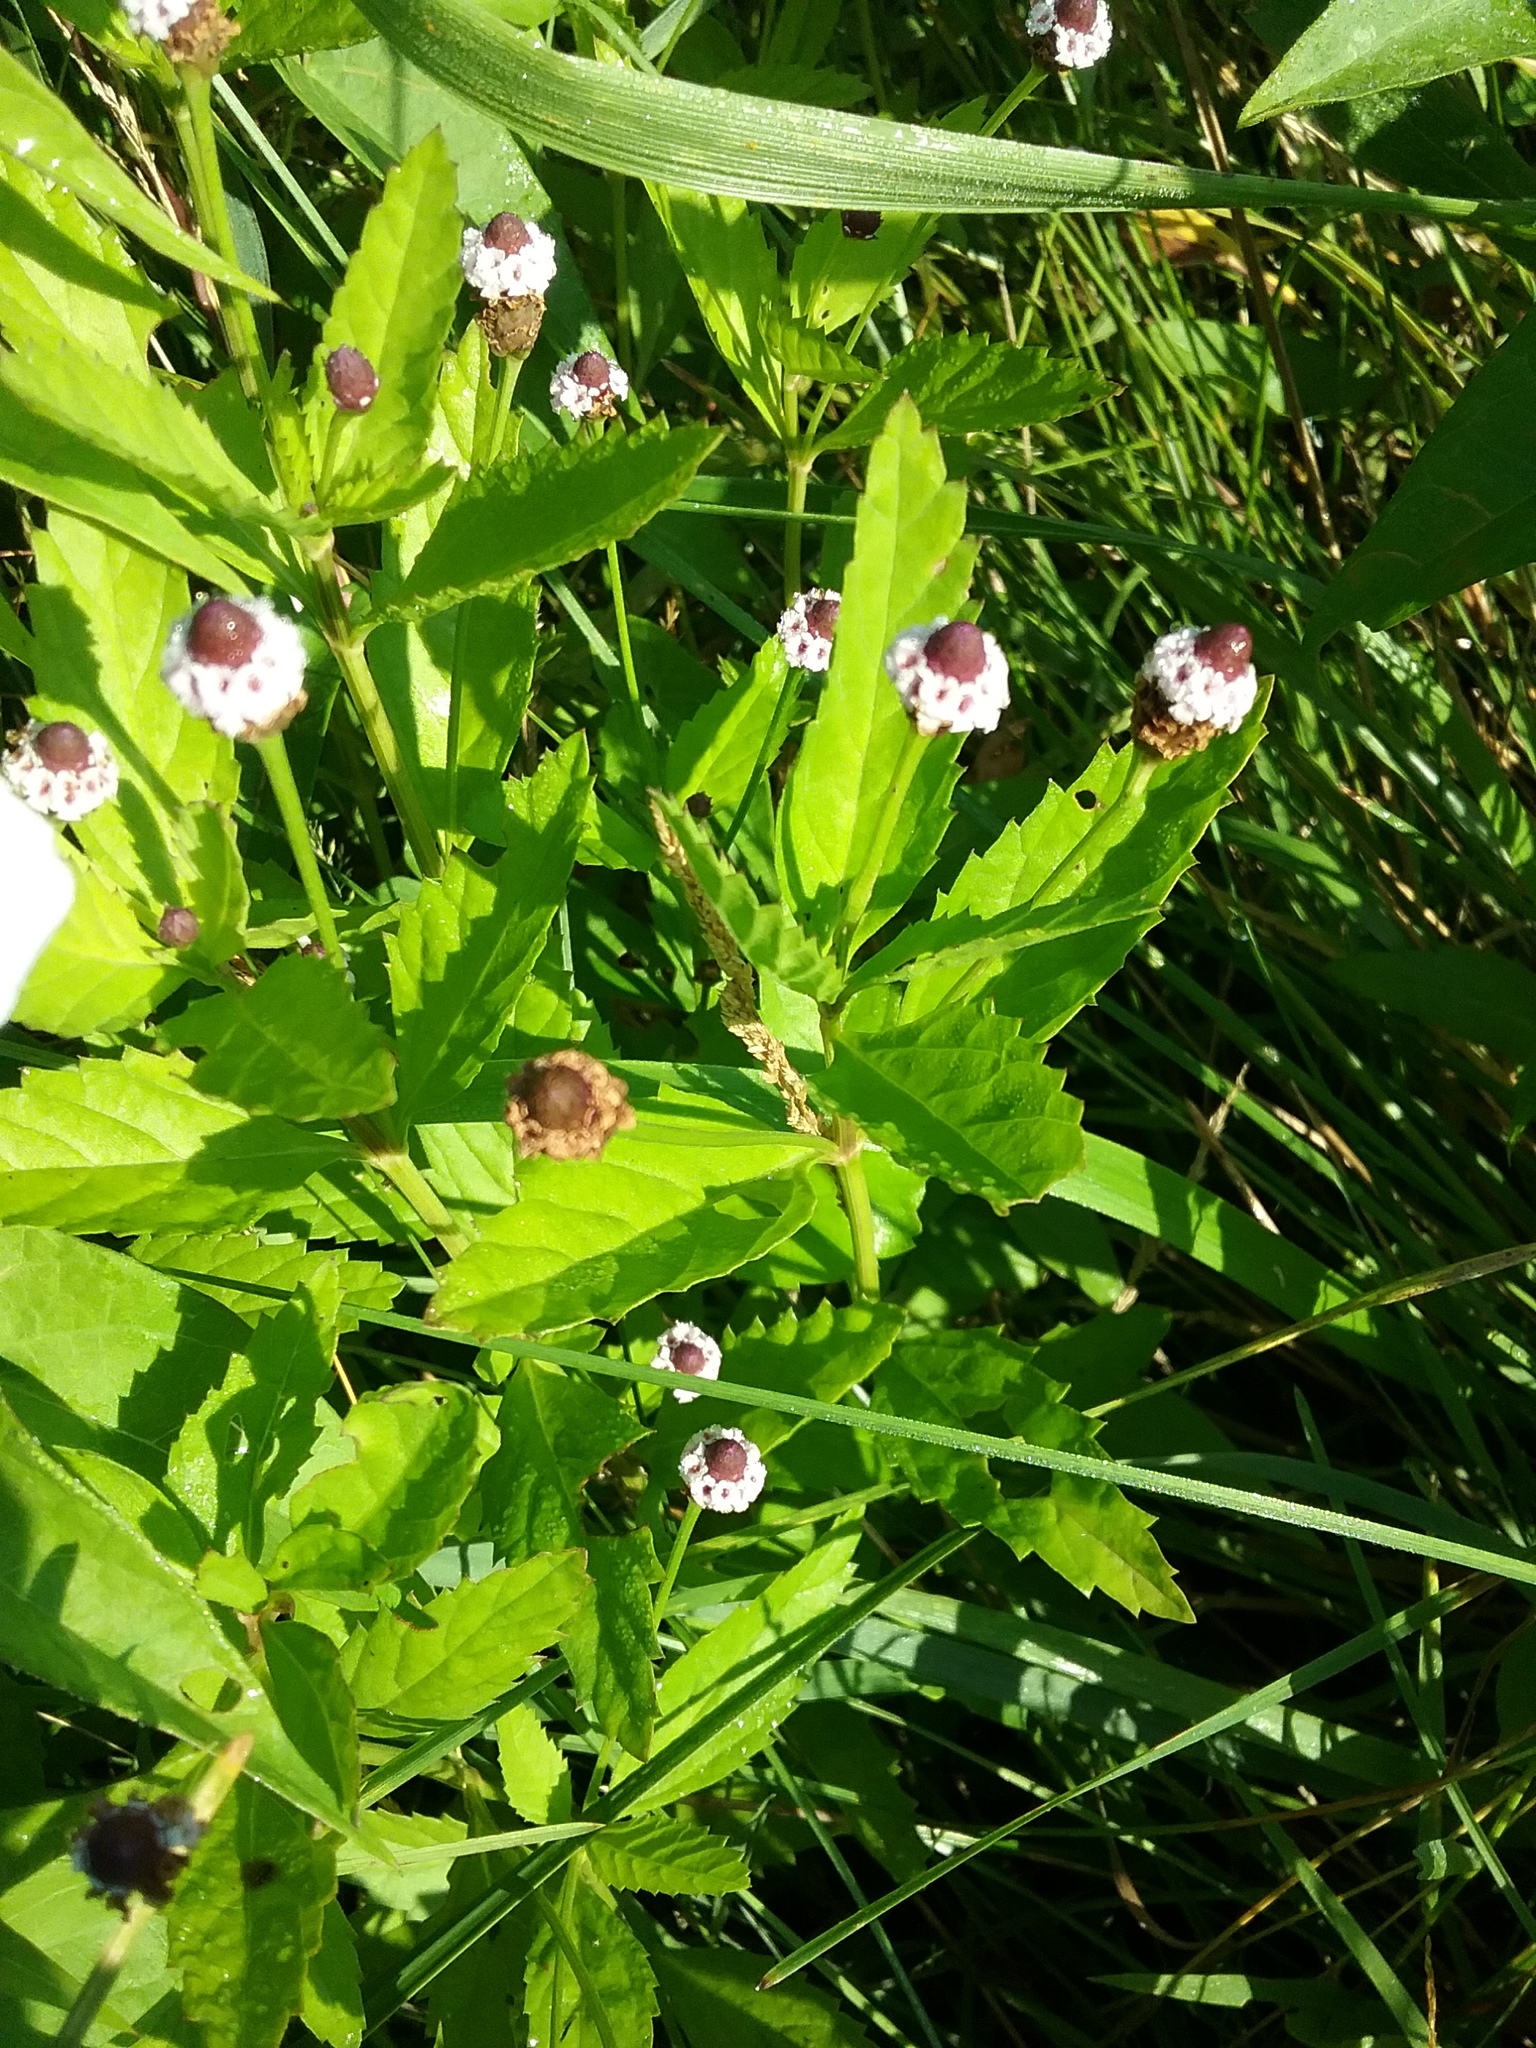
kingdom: Plantae
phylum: Tracheophyta
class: Magnoliopsida
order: Lamiales
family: Verbenaceae
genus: Phyla
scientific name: Phyla lanceolata
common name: Northern fogfruit
